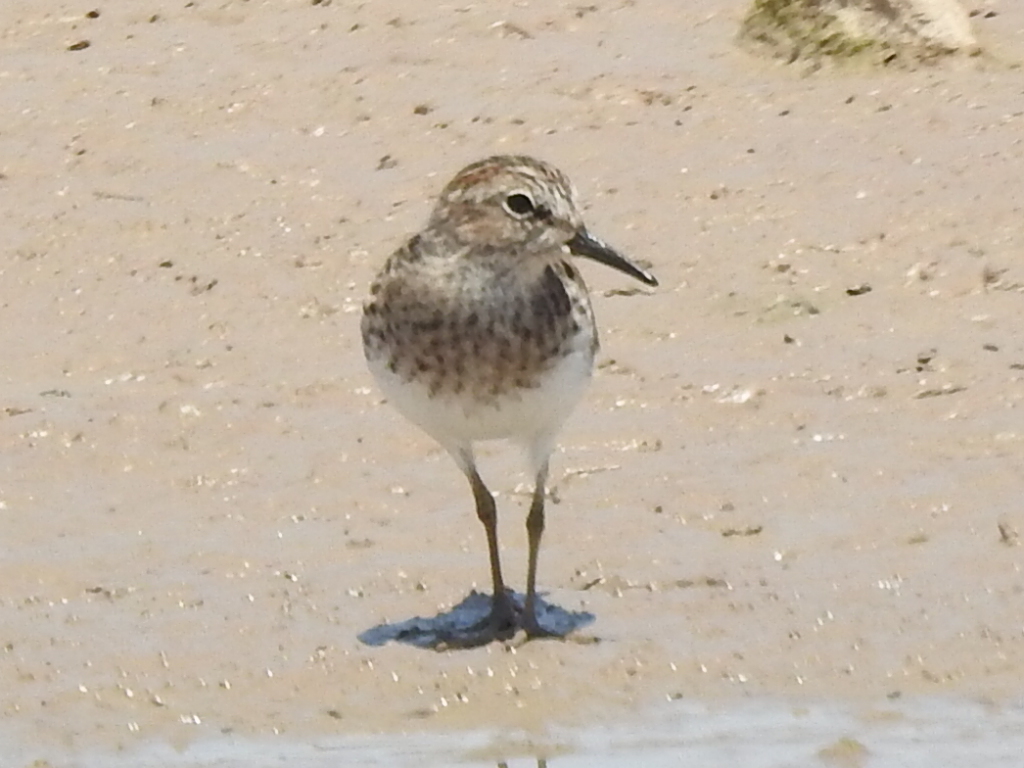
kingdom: Animalia
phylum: Chordata
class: Aves
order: Charadriiformes
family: Scolopacidae
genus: Calidris
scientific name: Calidris minutilla
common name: Least sandpiper
